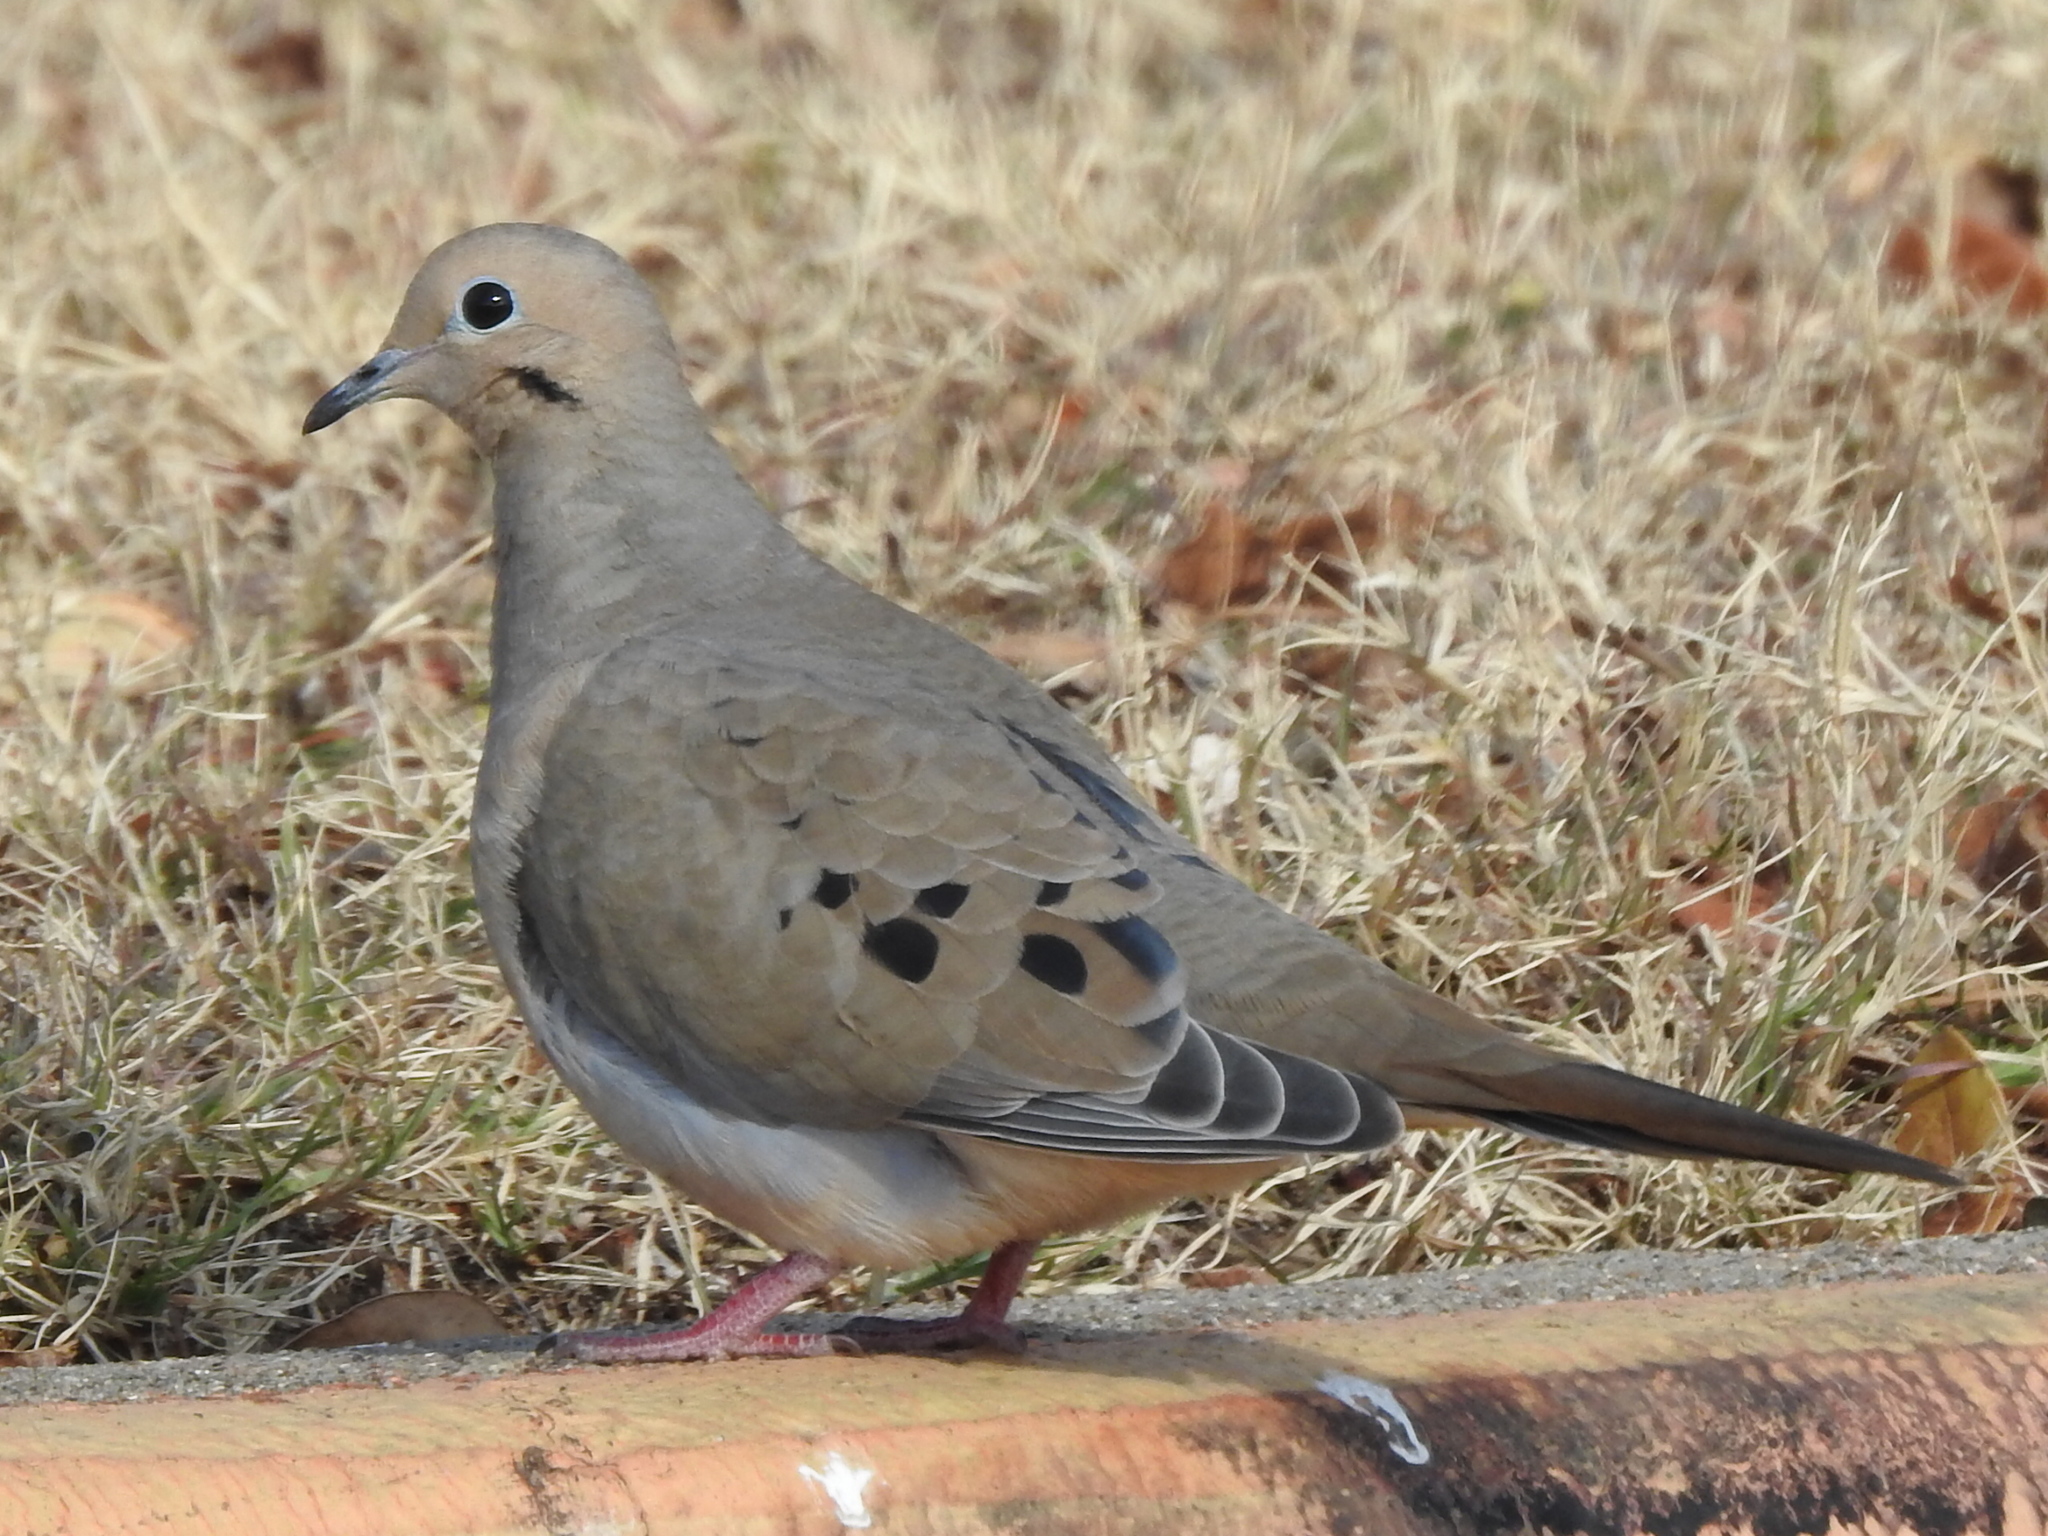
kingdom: Animalia
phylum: Chordata
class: Aves
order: Columbiformes
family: Columbidae
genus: Zenaida
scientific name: Zenaida macroura
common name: Mourning dove
